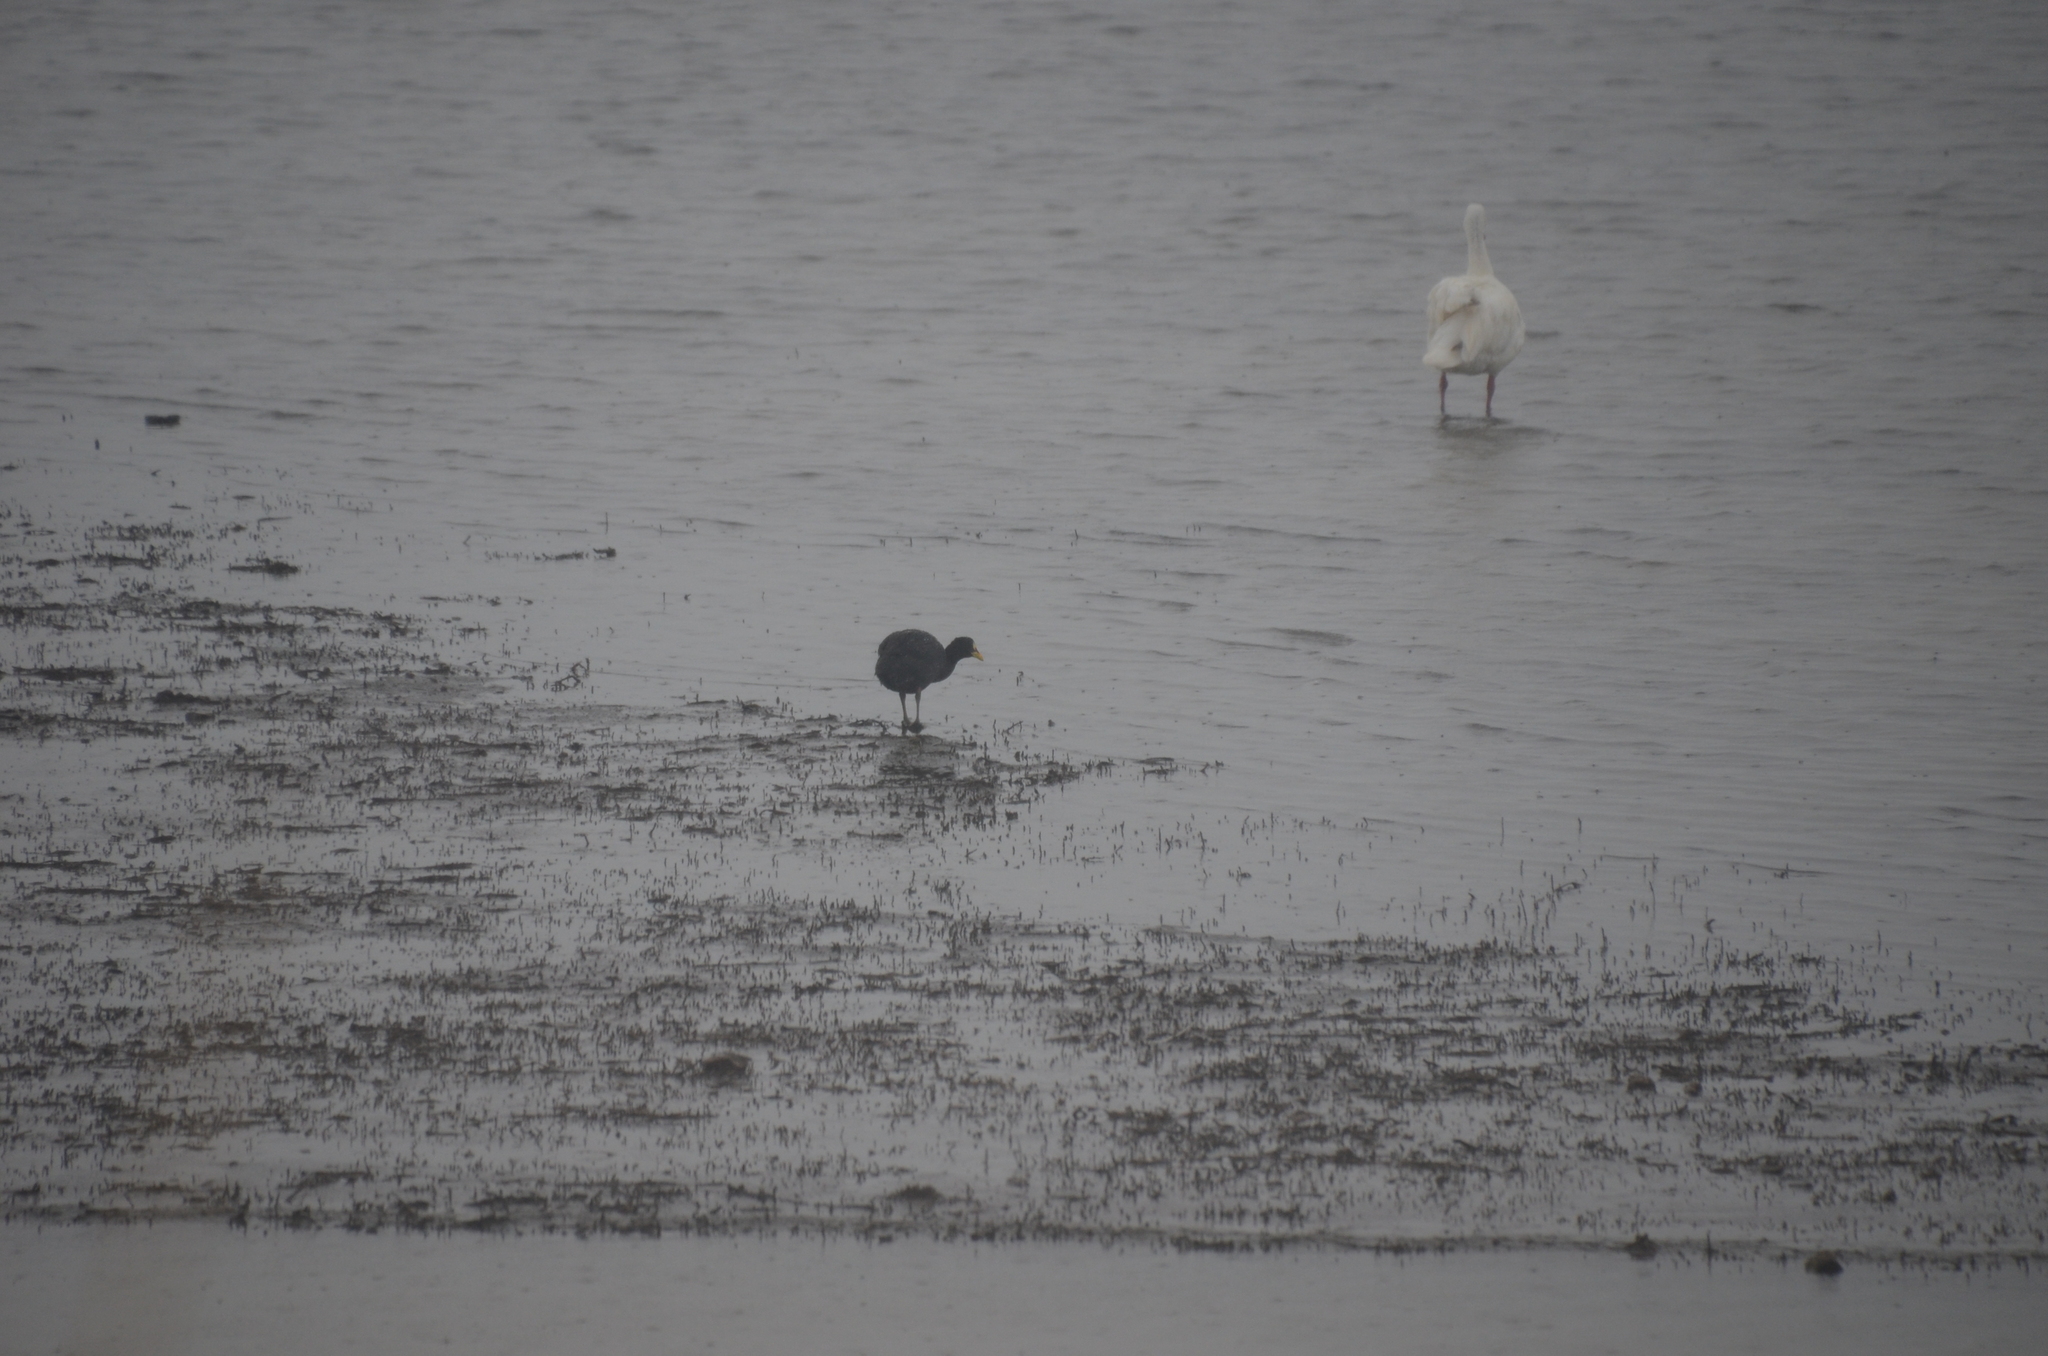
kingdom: Animalia
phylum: Chordata
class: Aves
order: Gruiformes
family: Rallidae
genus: Fulica
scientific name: Fulica armillata
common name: Red-gartered coot
